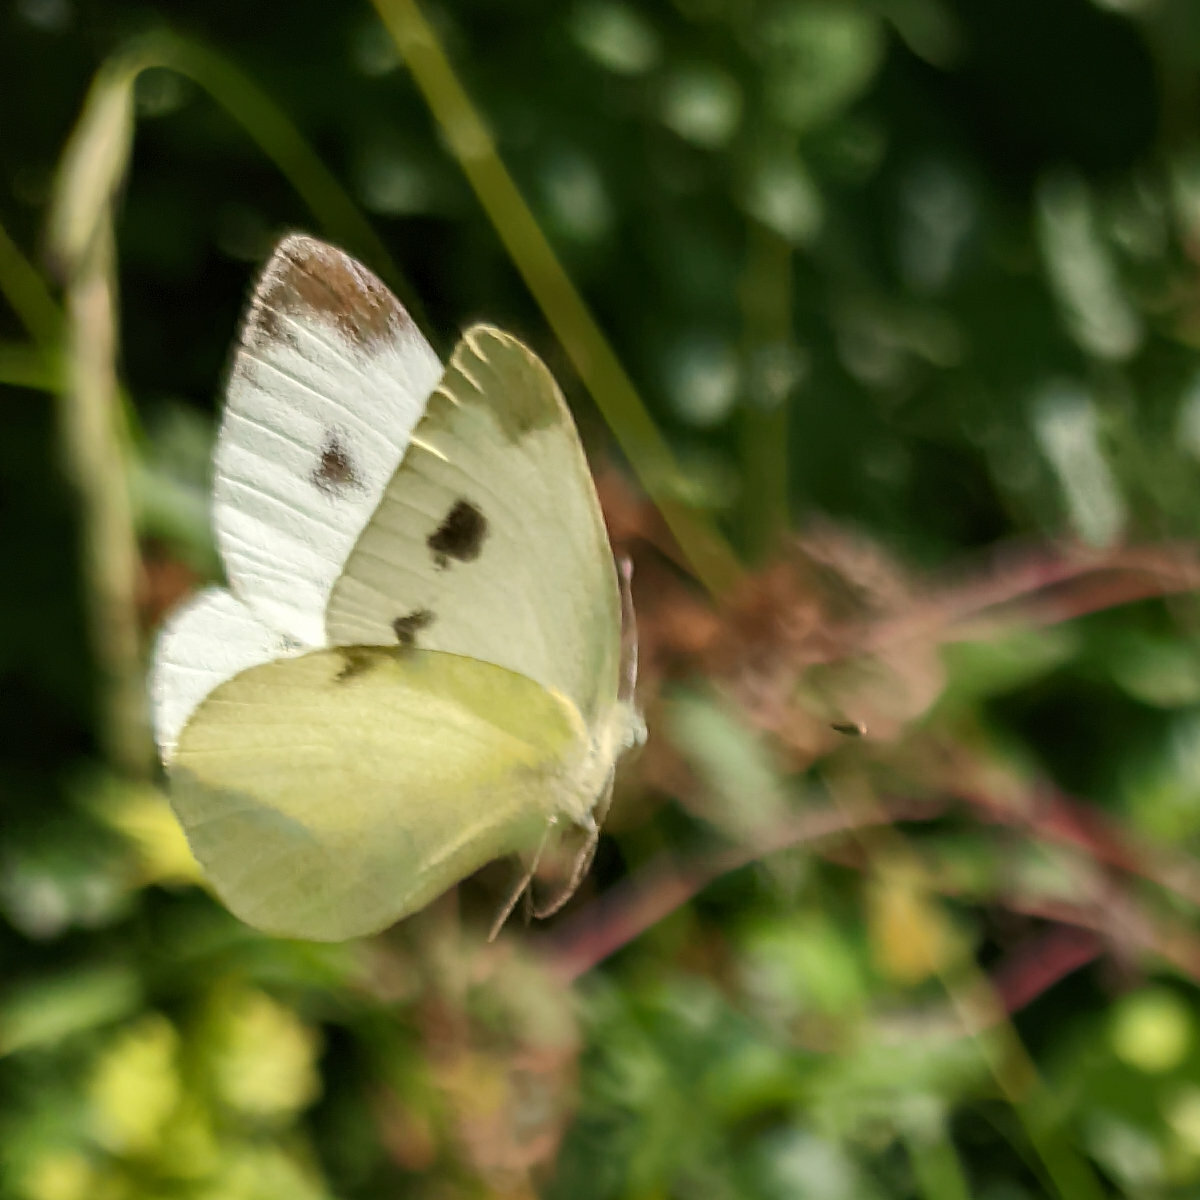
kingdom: Animalia
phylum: Arthropoda
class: Insecta
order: Lepidoptera
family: Pieridae
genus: Pieris
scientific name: Pieris mannii
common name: Southern small white
